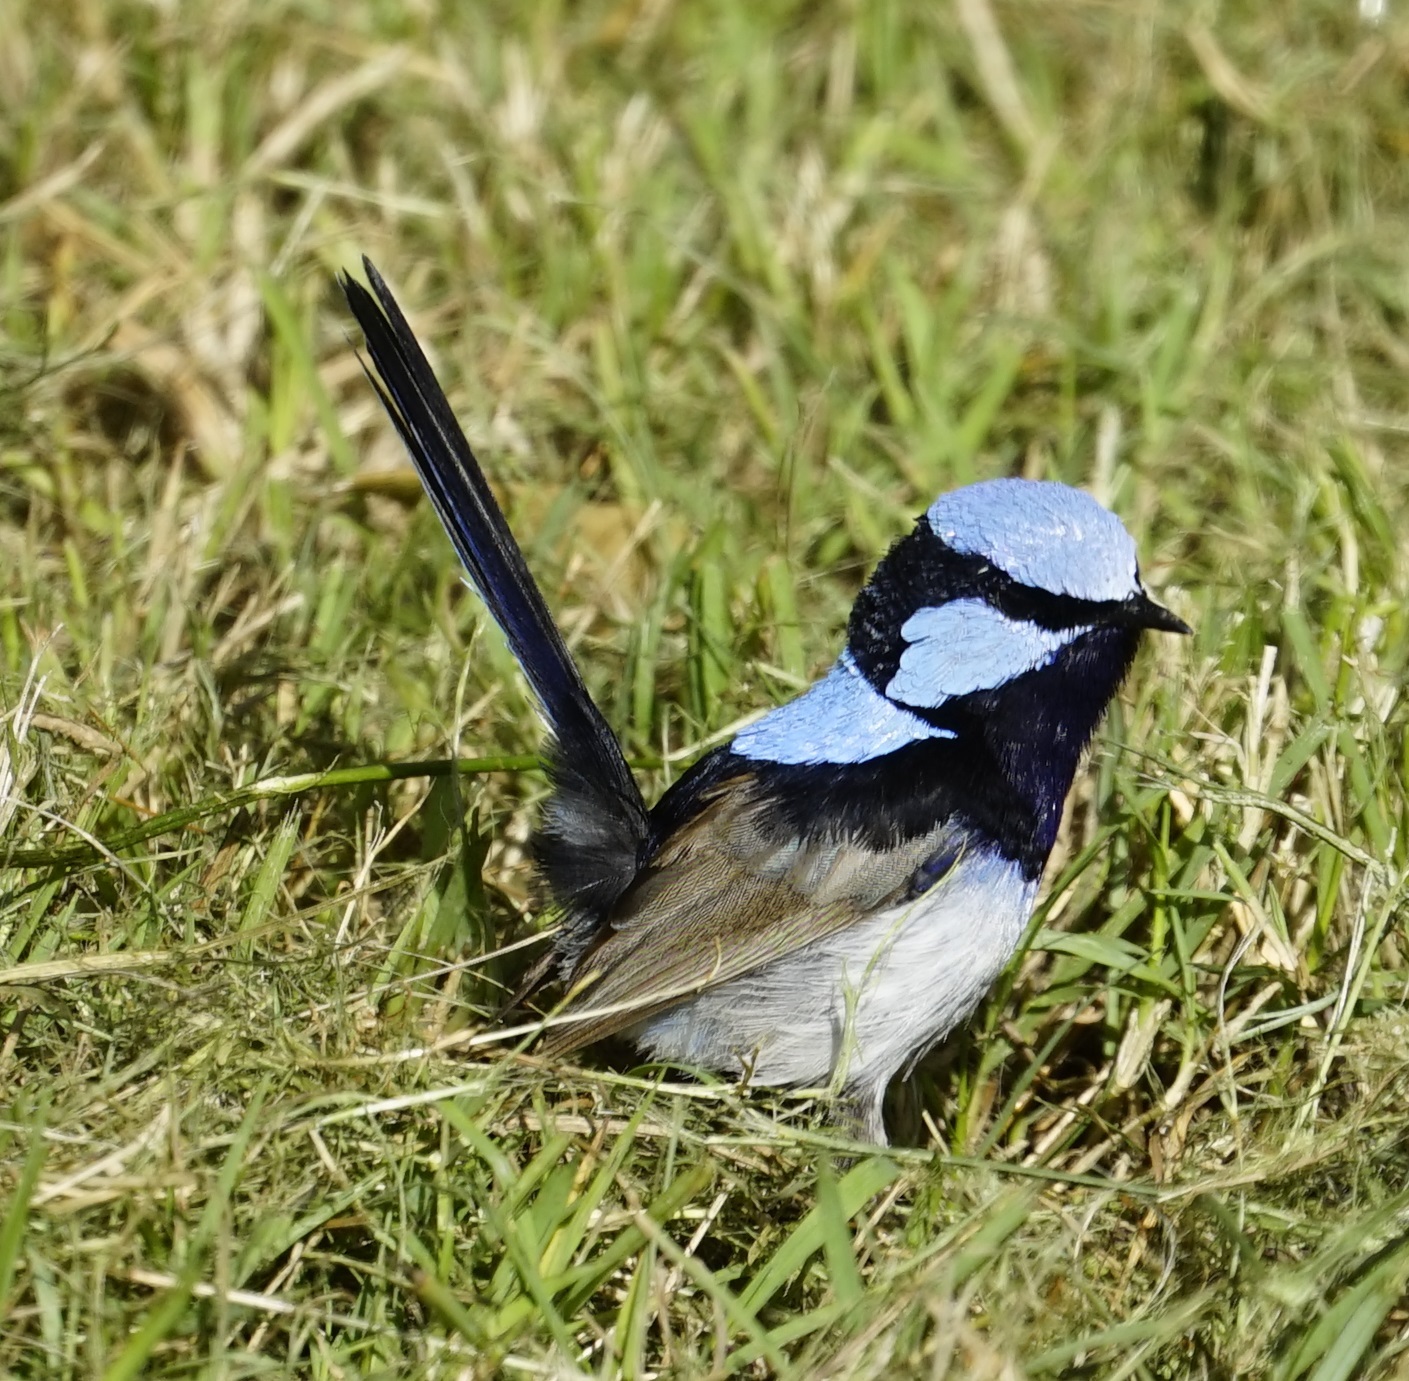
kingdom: Animalia
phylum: Chordata
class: Aves
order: Passeriformes
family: Maluridae
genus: Malurus
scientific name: Malurus cyaneus
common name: Superb fairywren
